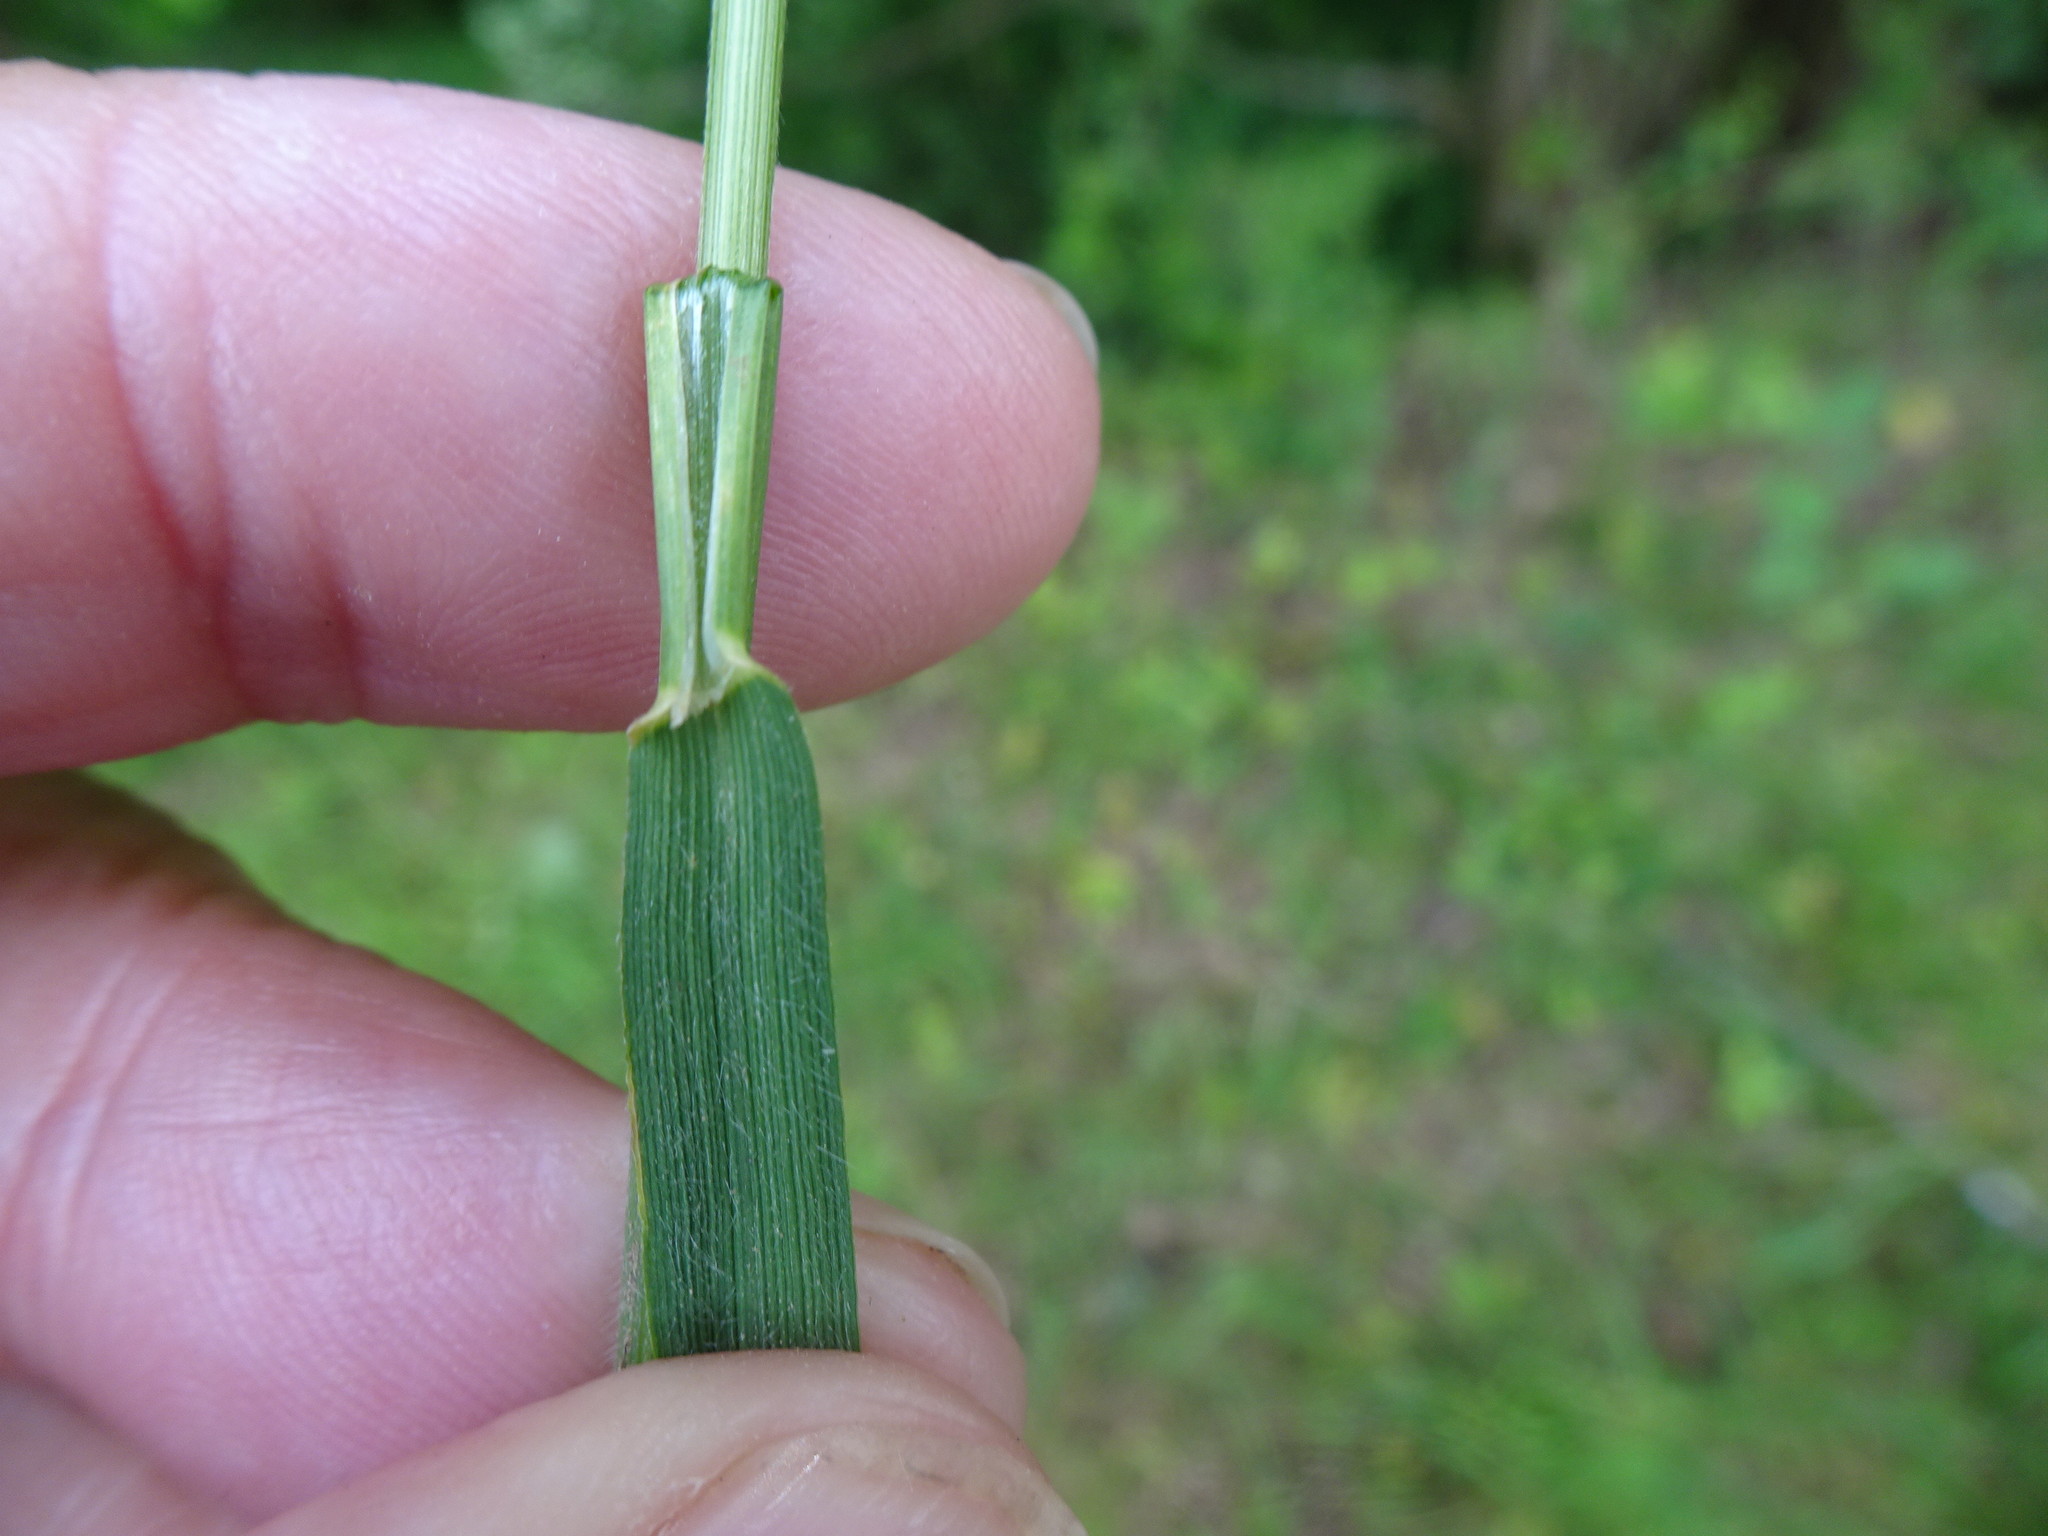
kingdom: Plantae
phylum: Tracheophyta
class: Liliopsida
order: Poales
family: Poaceae
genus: Trisetum
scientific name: Trisetum flavescens
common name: Yellow oat-grass
